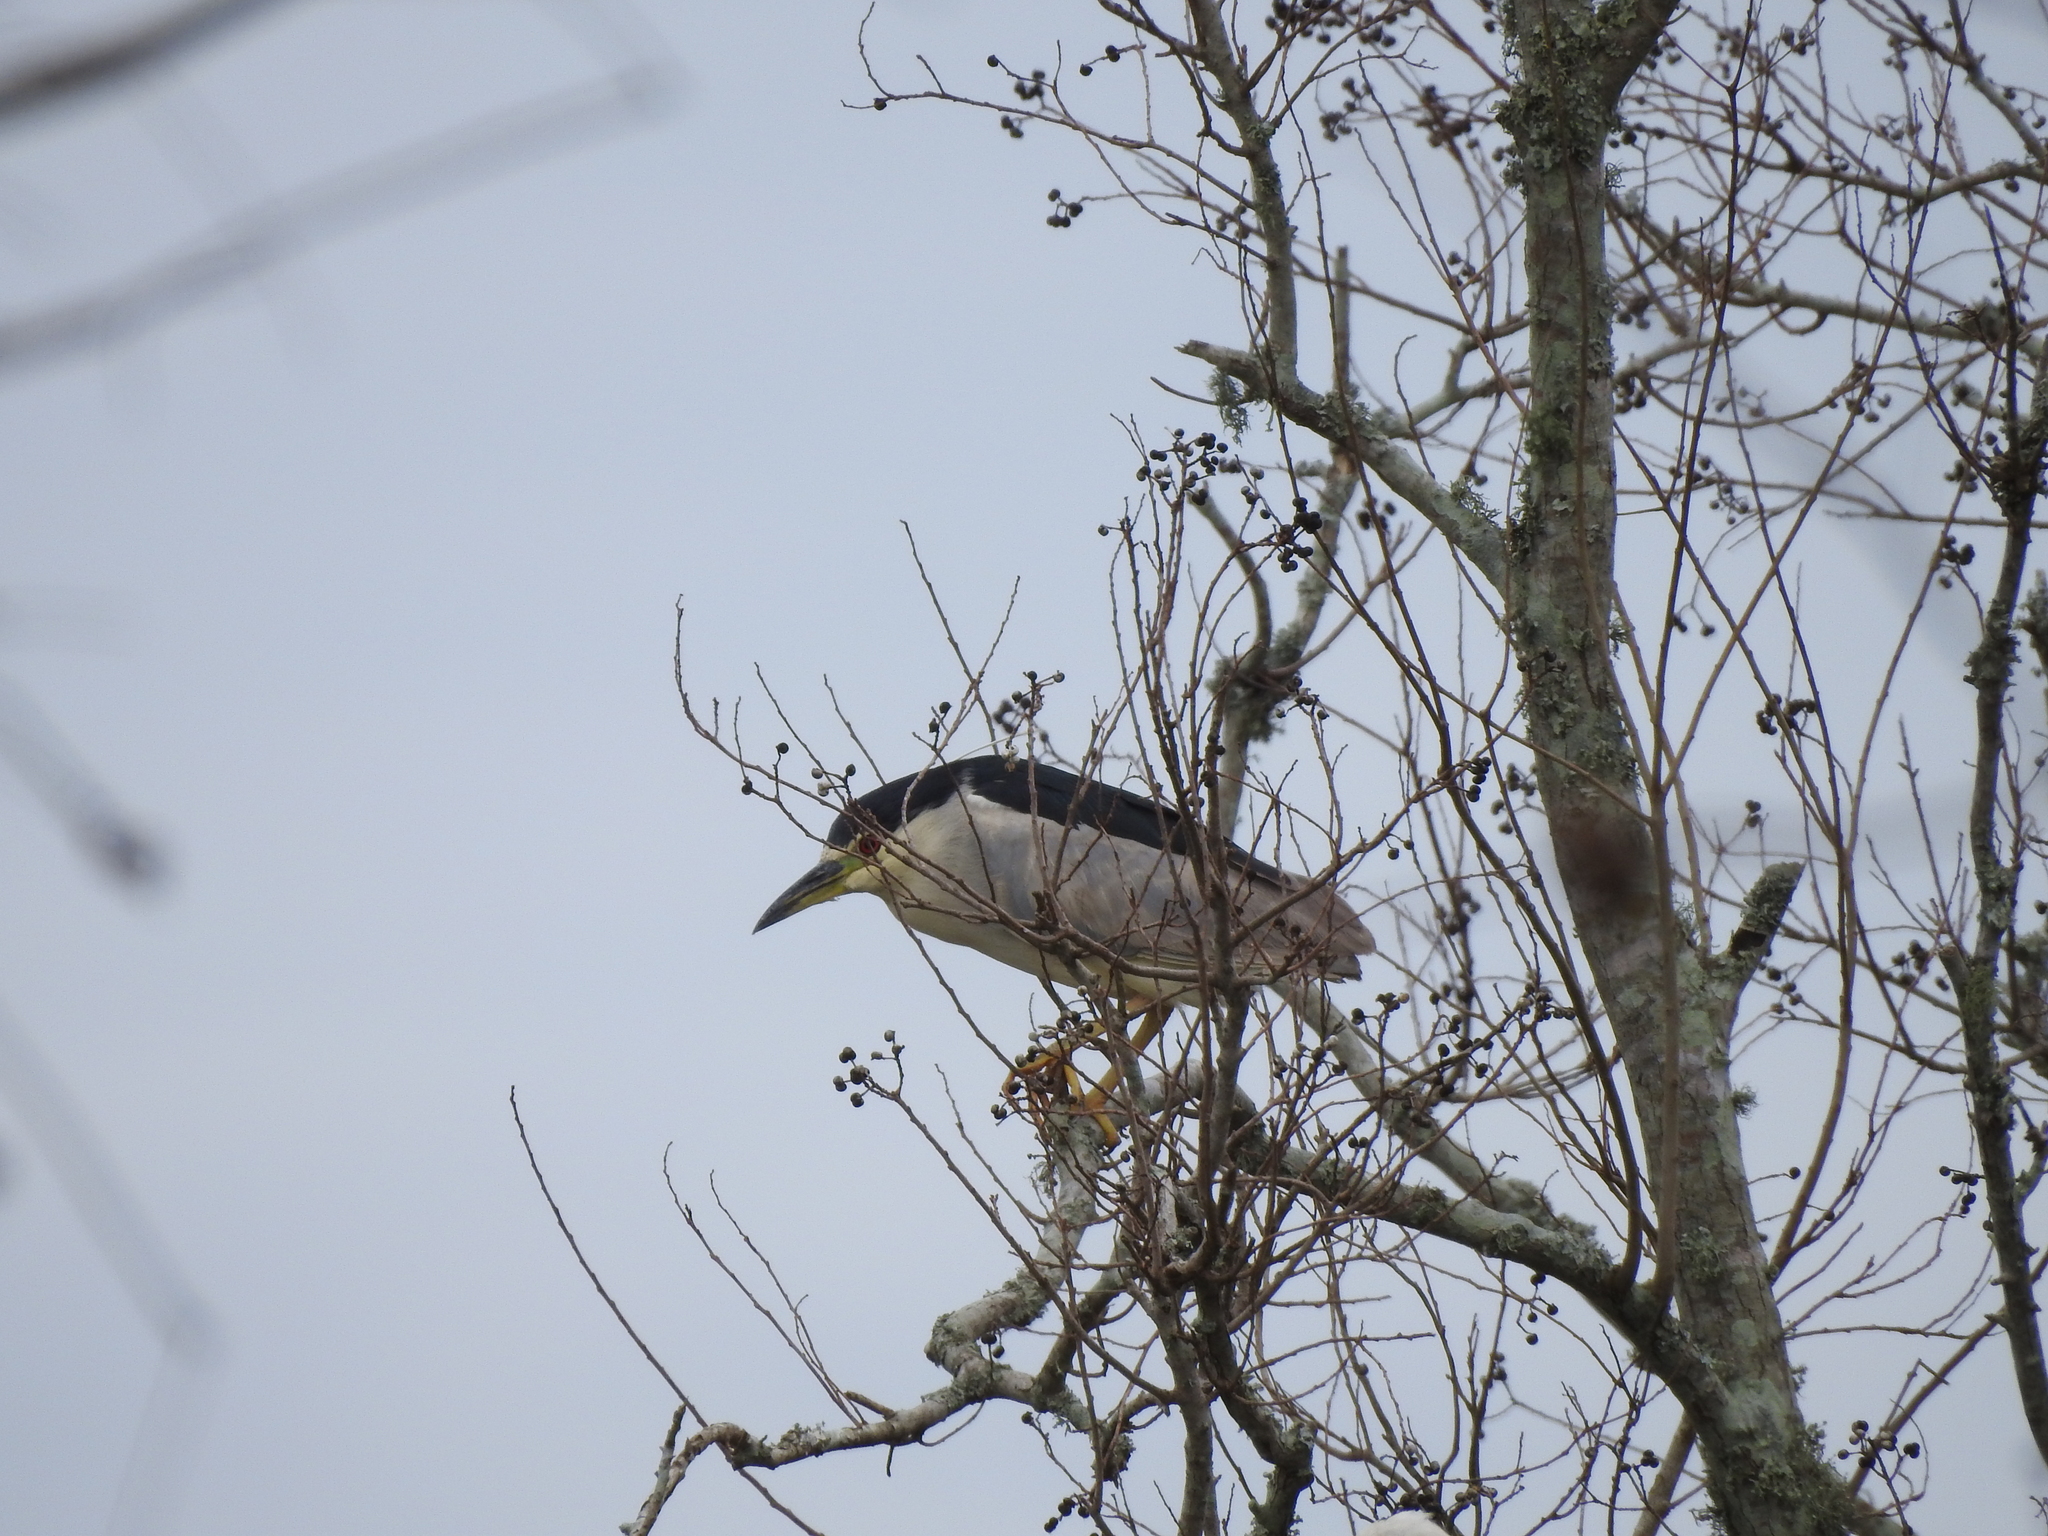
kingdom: Animalia
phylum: Chordata
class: Aves
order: Pelecaniformes
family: Ardeidae
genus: Nycticorax
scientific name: Nycticorax nycticorax
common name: Black-crowned night heron
